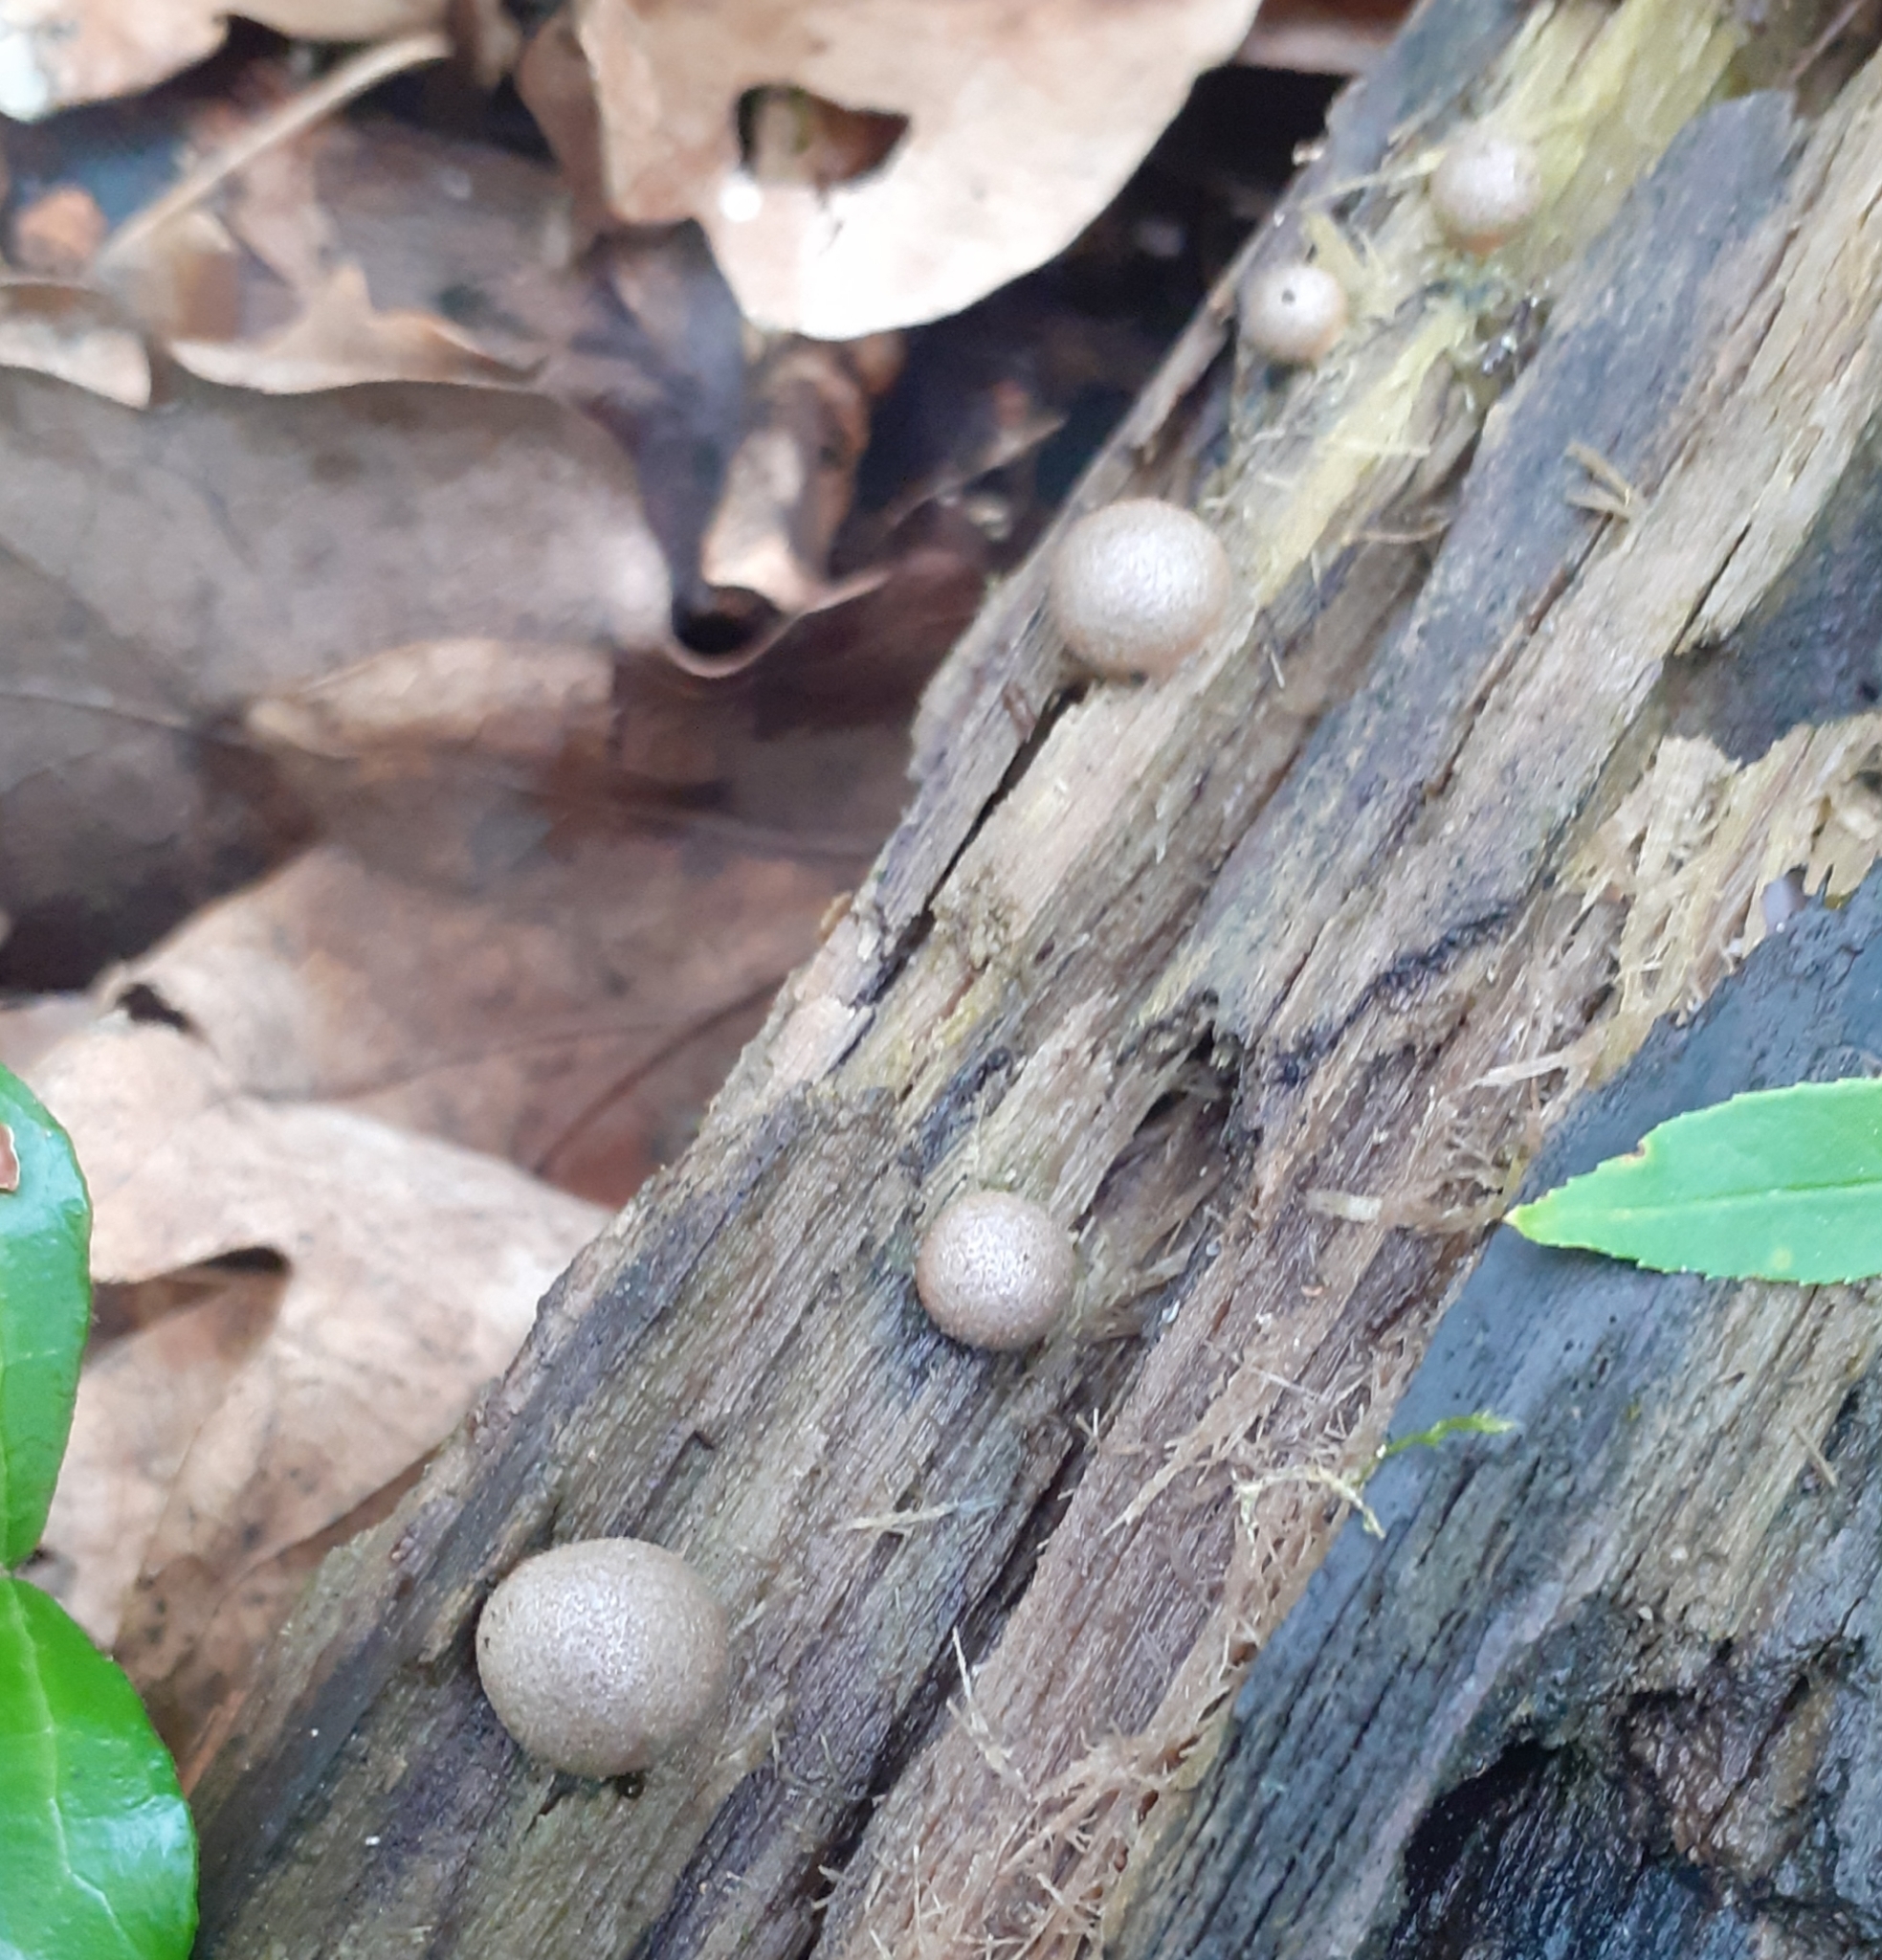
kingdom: Protozoa
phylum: Mycetozoa
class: Myxomycetes
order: Cribrariales
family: Tubiferaceae
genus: Lycogala
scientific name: Lycogala epidendrum
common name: Wolf's milk
